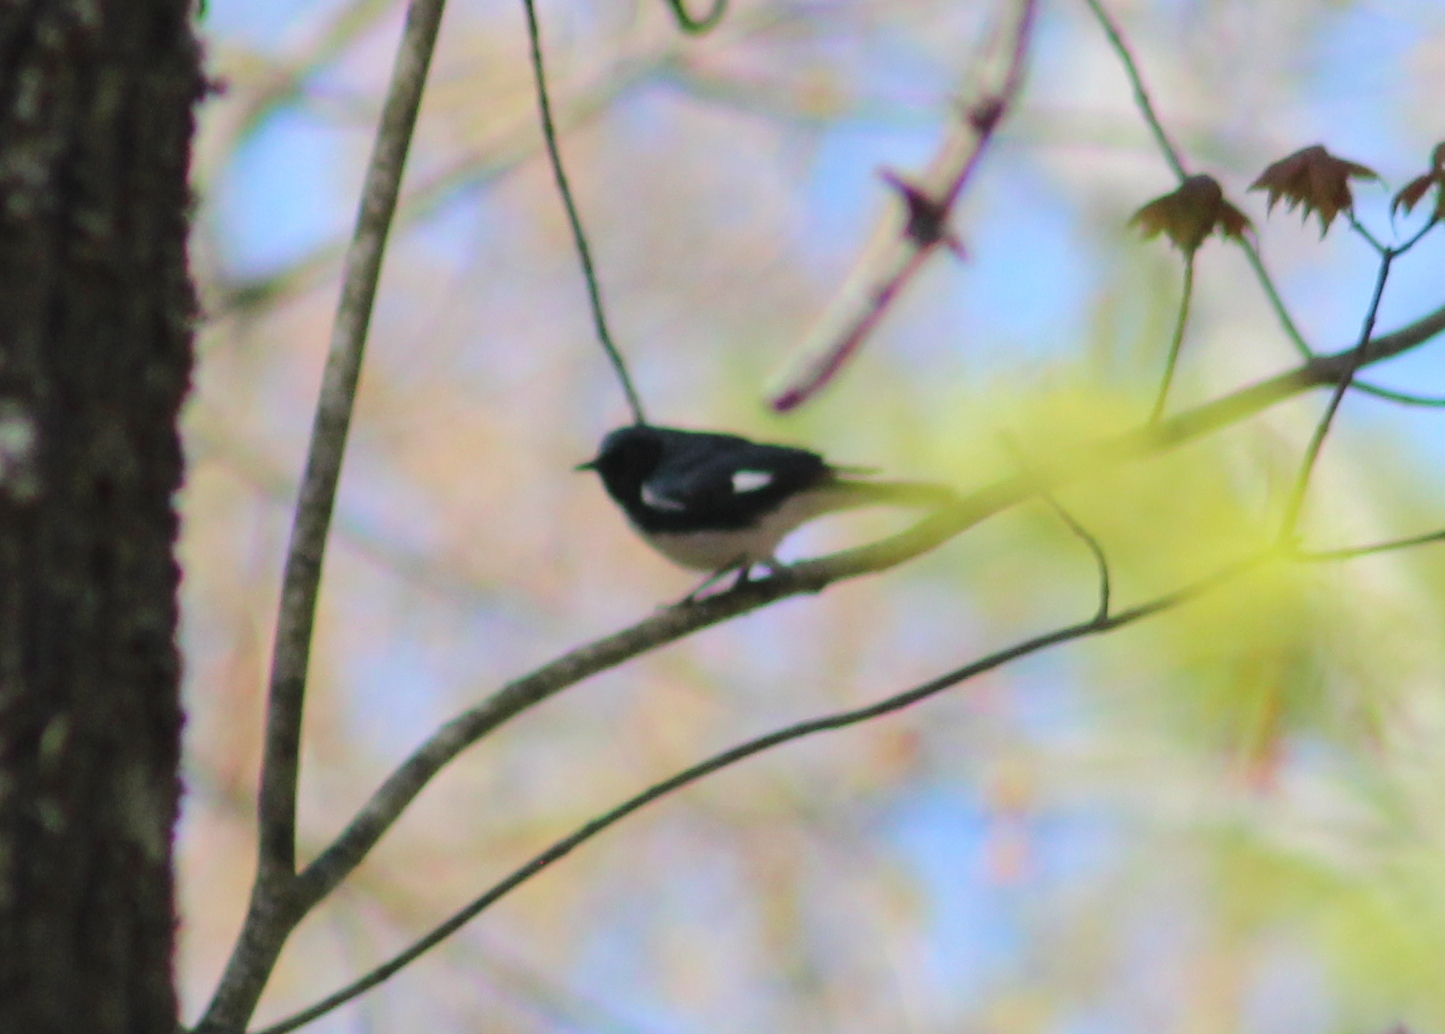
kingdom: Animalia
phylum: Chordata
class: Aves
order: Passeriformes
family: Parulidae
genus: Setophaga
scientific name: Setophaga caerulescens
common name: Black-throated blue warbler
